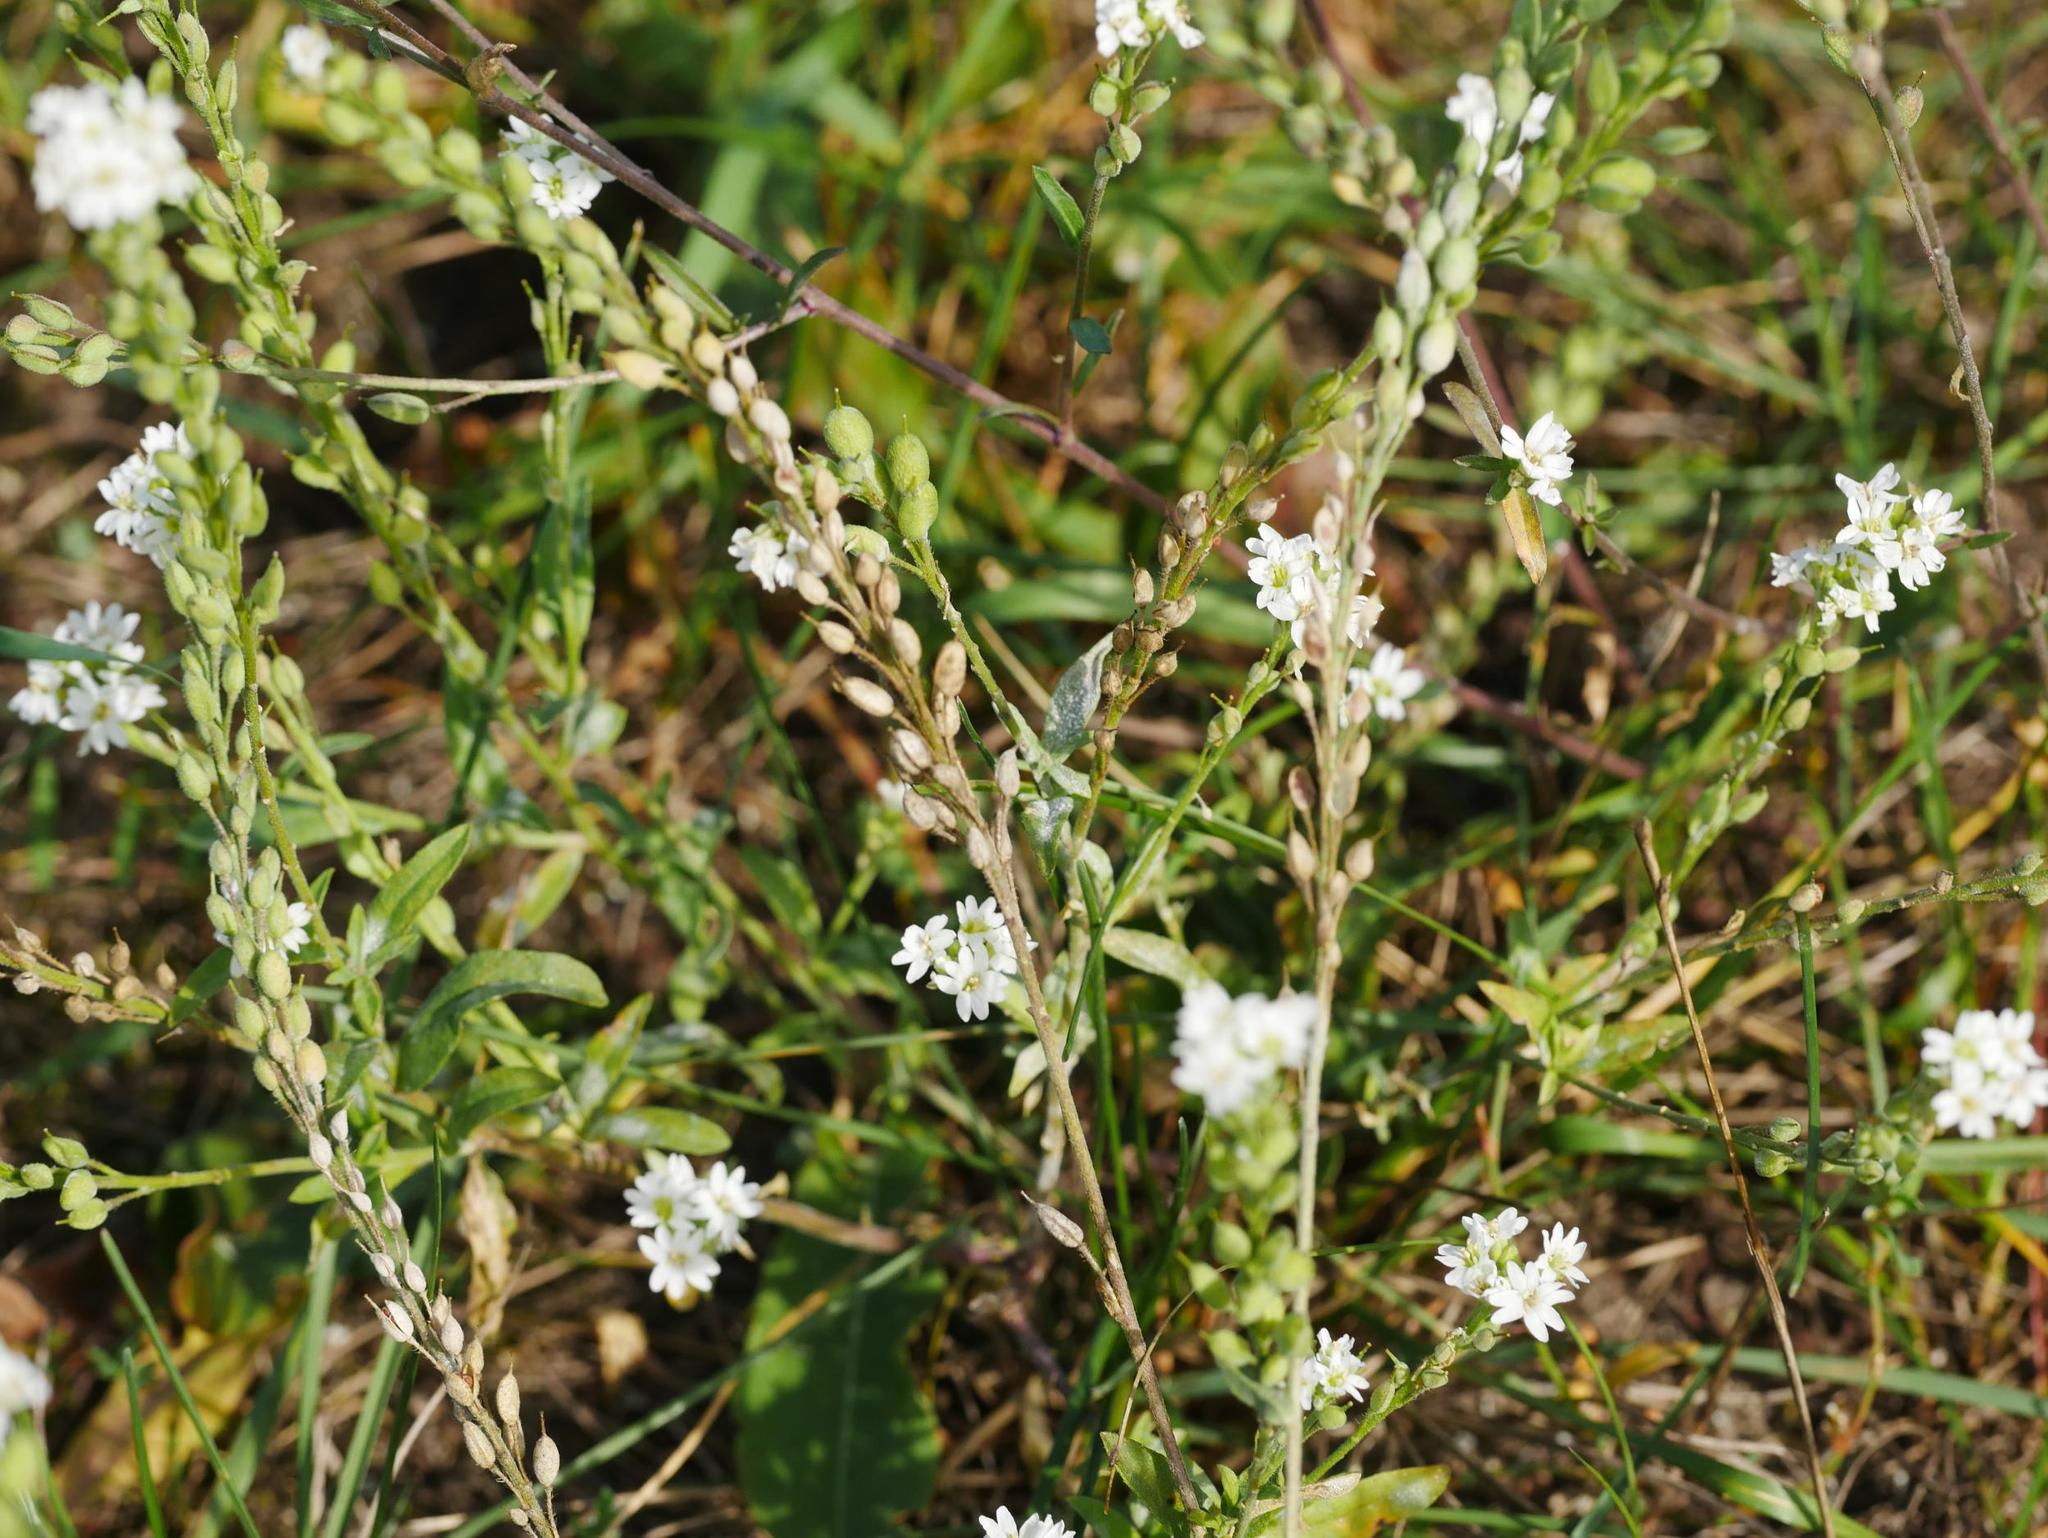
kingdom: Plantae
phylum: Tracheophyta
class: Magnoliopsida
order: Brassicales
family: Brassicaceae
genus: Berteroa
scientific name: Berteroa incana
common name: Hoary alison
